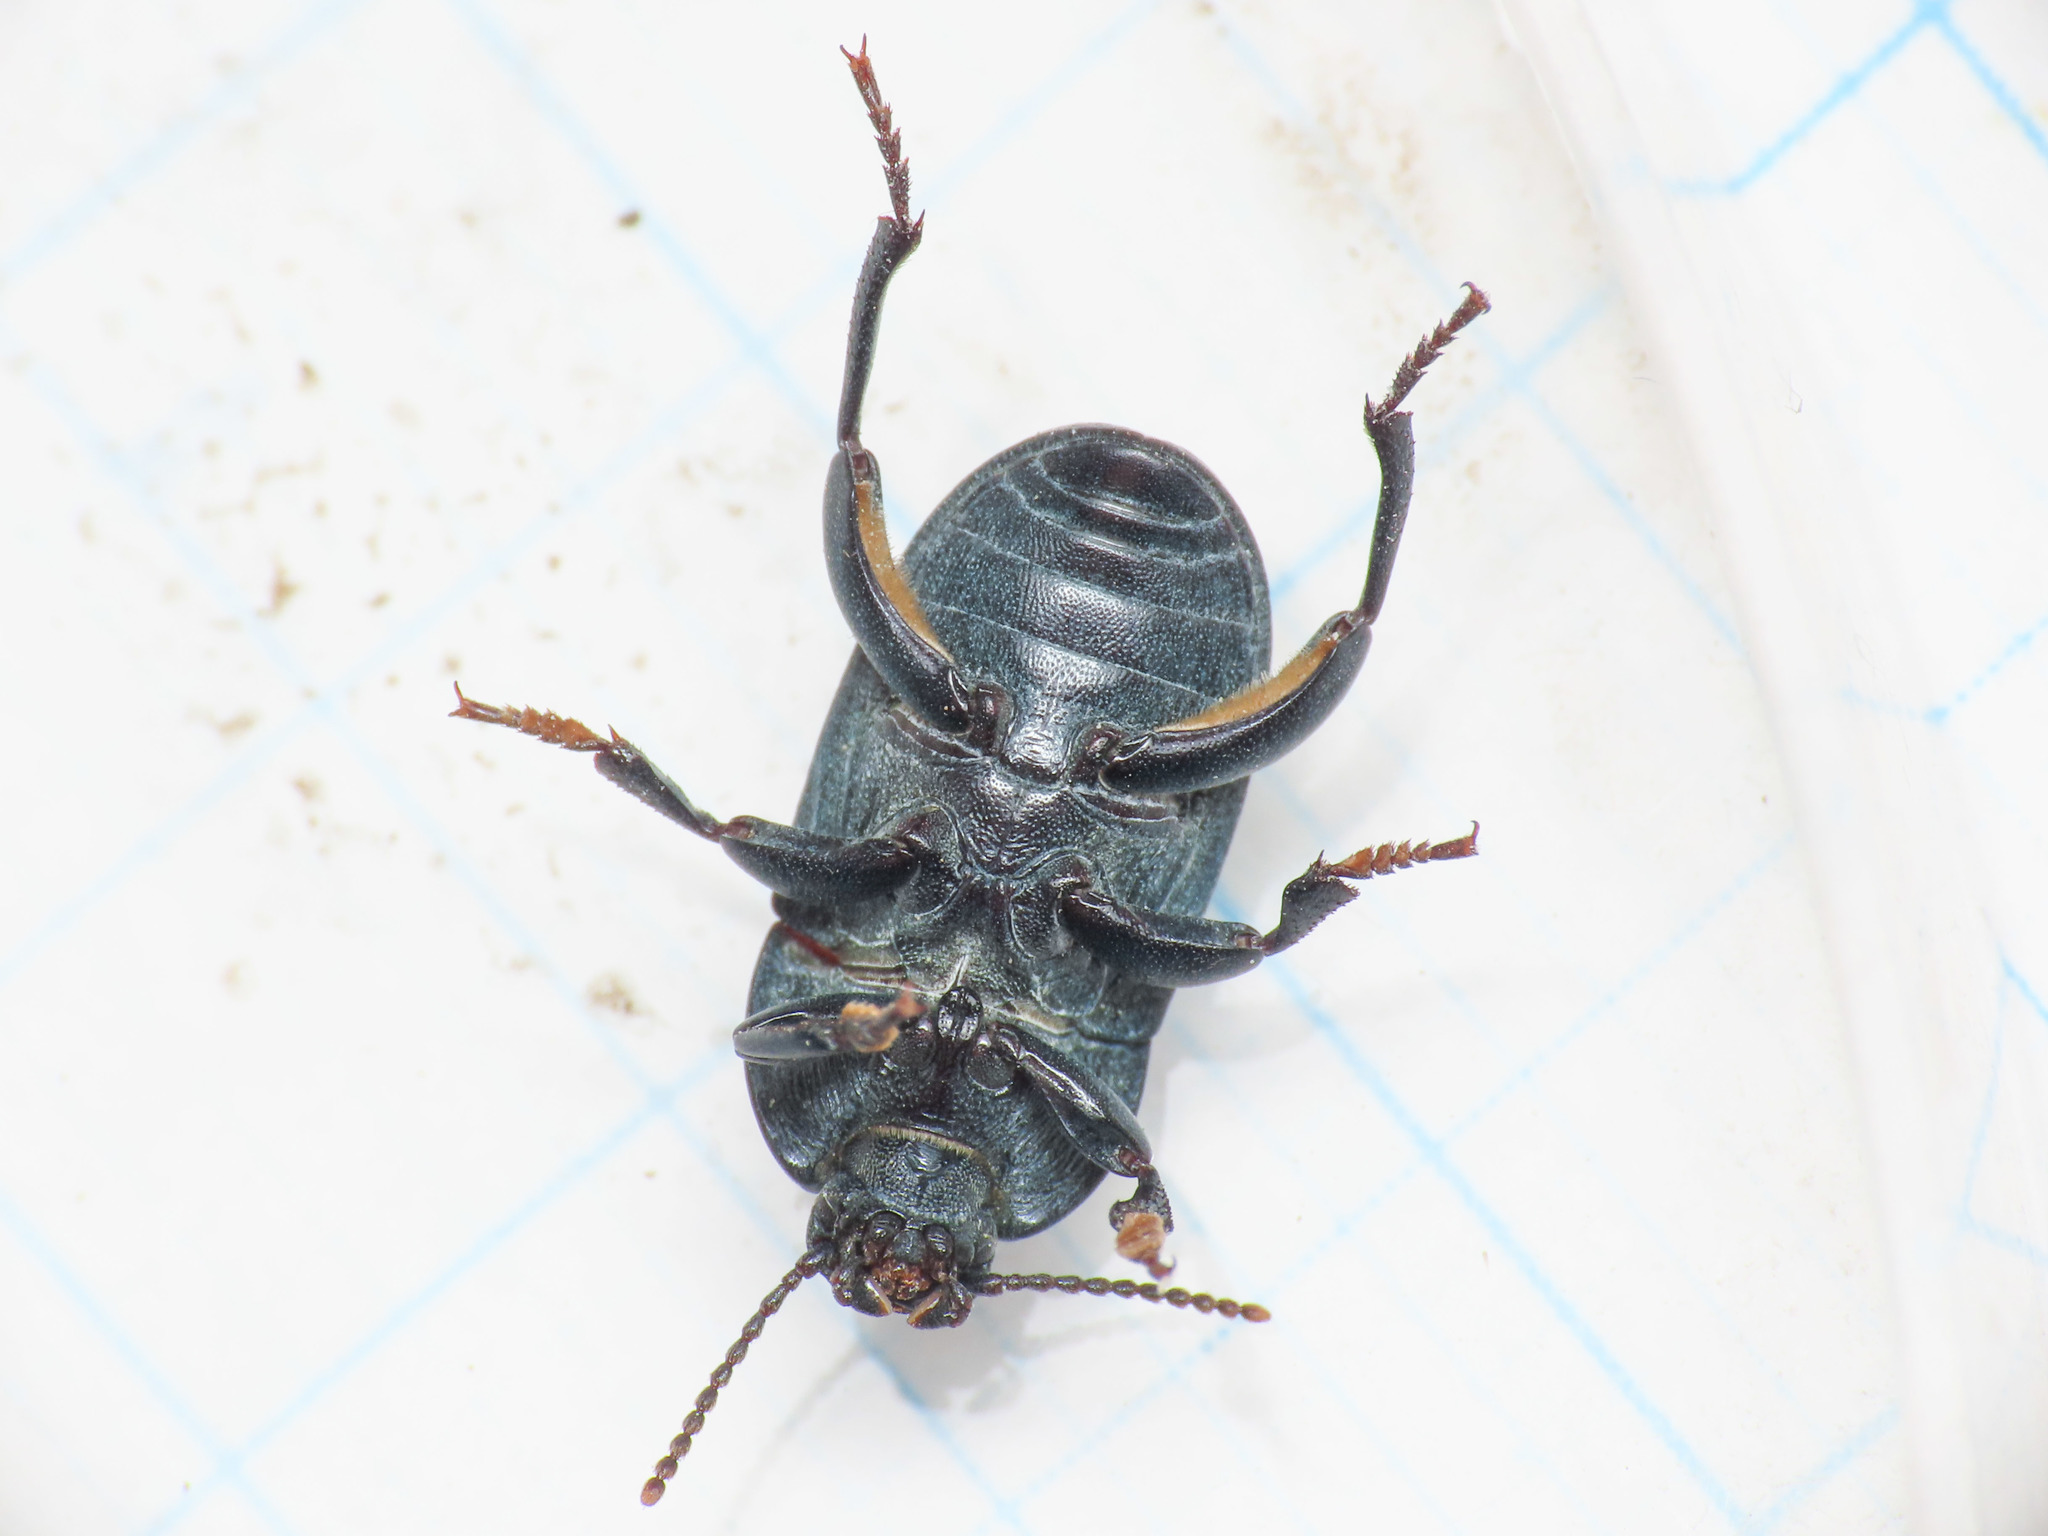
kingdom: Animalia
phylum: Arthropoda
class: Insecta
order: Coleoptera
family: Tenebrionidae
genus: Pedinus
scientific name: Pedinus meridianus
